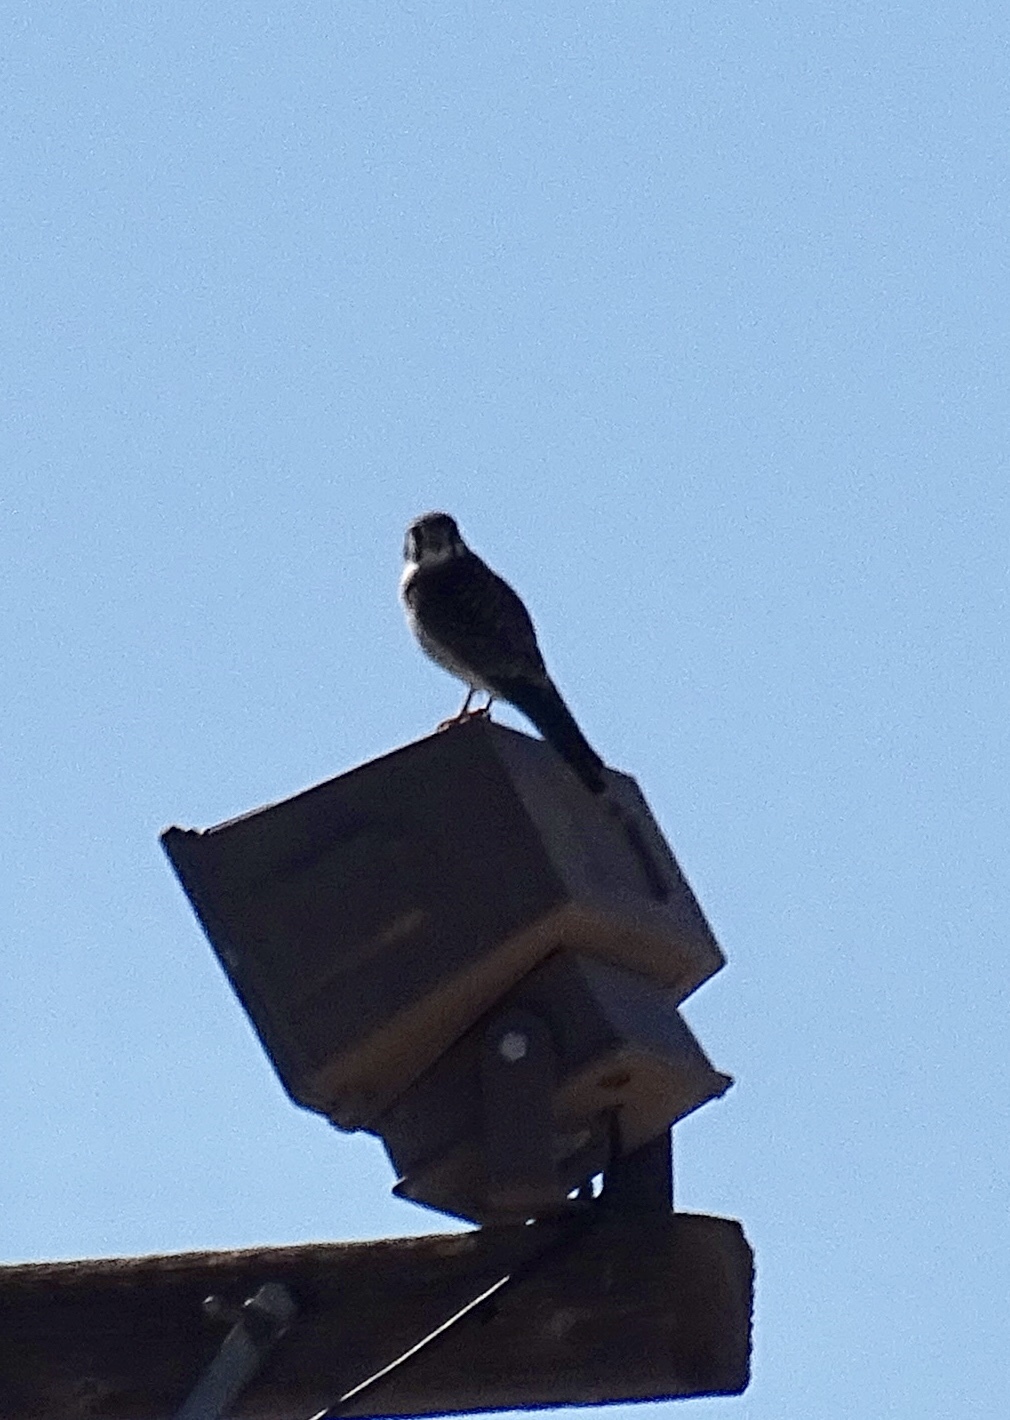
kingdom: Animalia
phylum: Chordata
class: Aves
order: Falconiformes
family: Falconidae
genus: Falco
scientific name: Falco sparverius
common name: American kestrel
